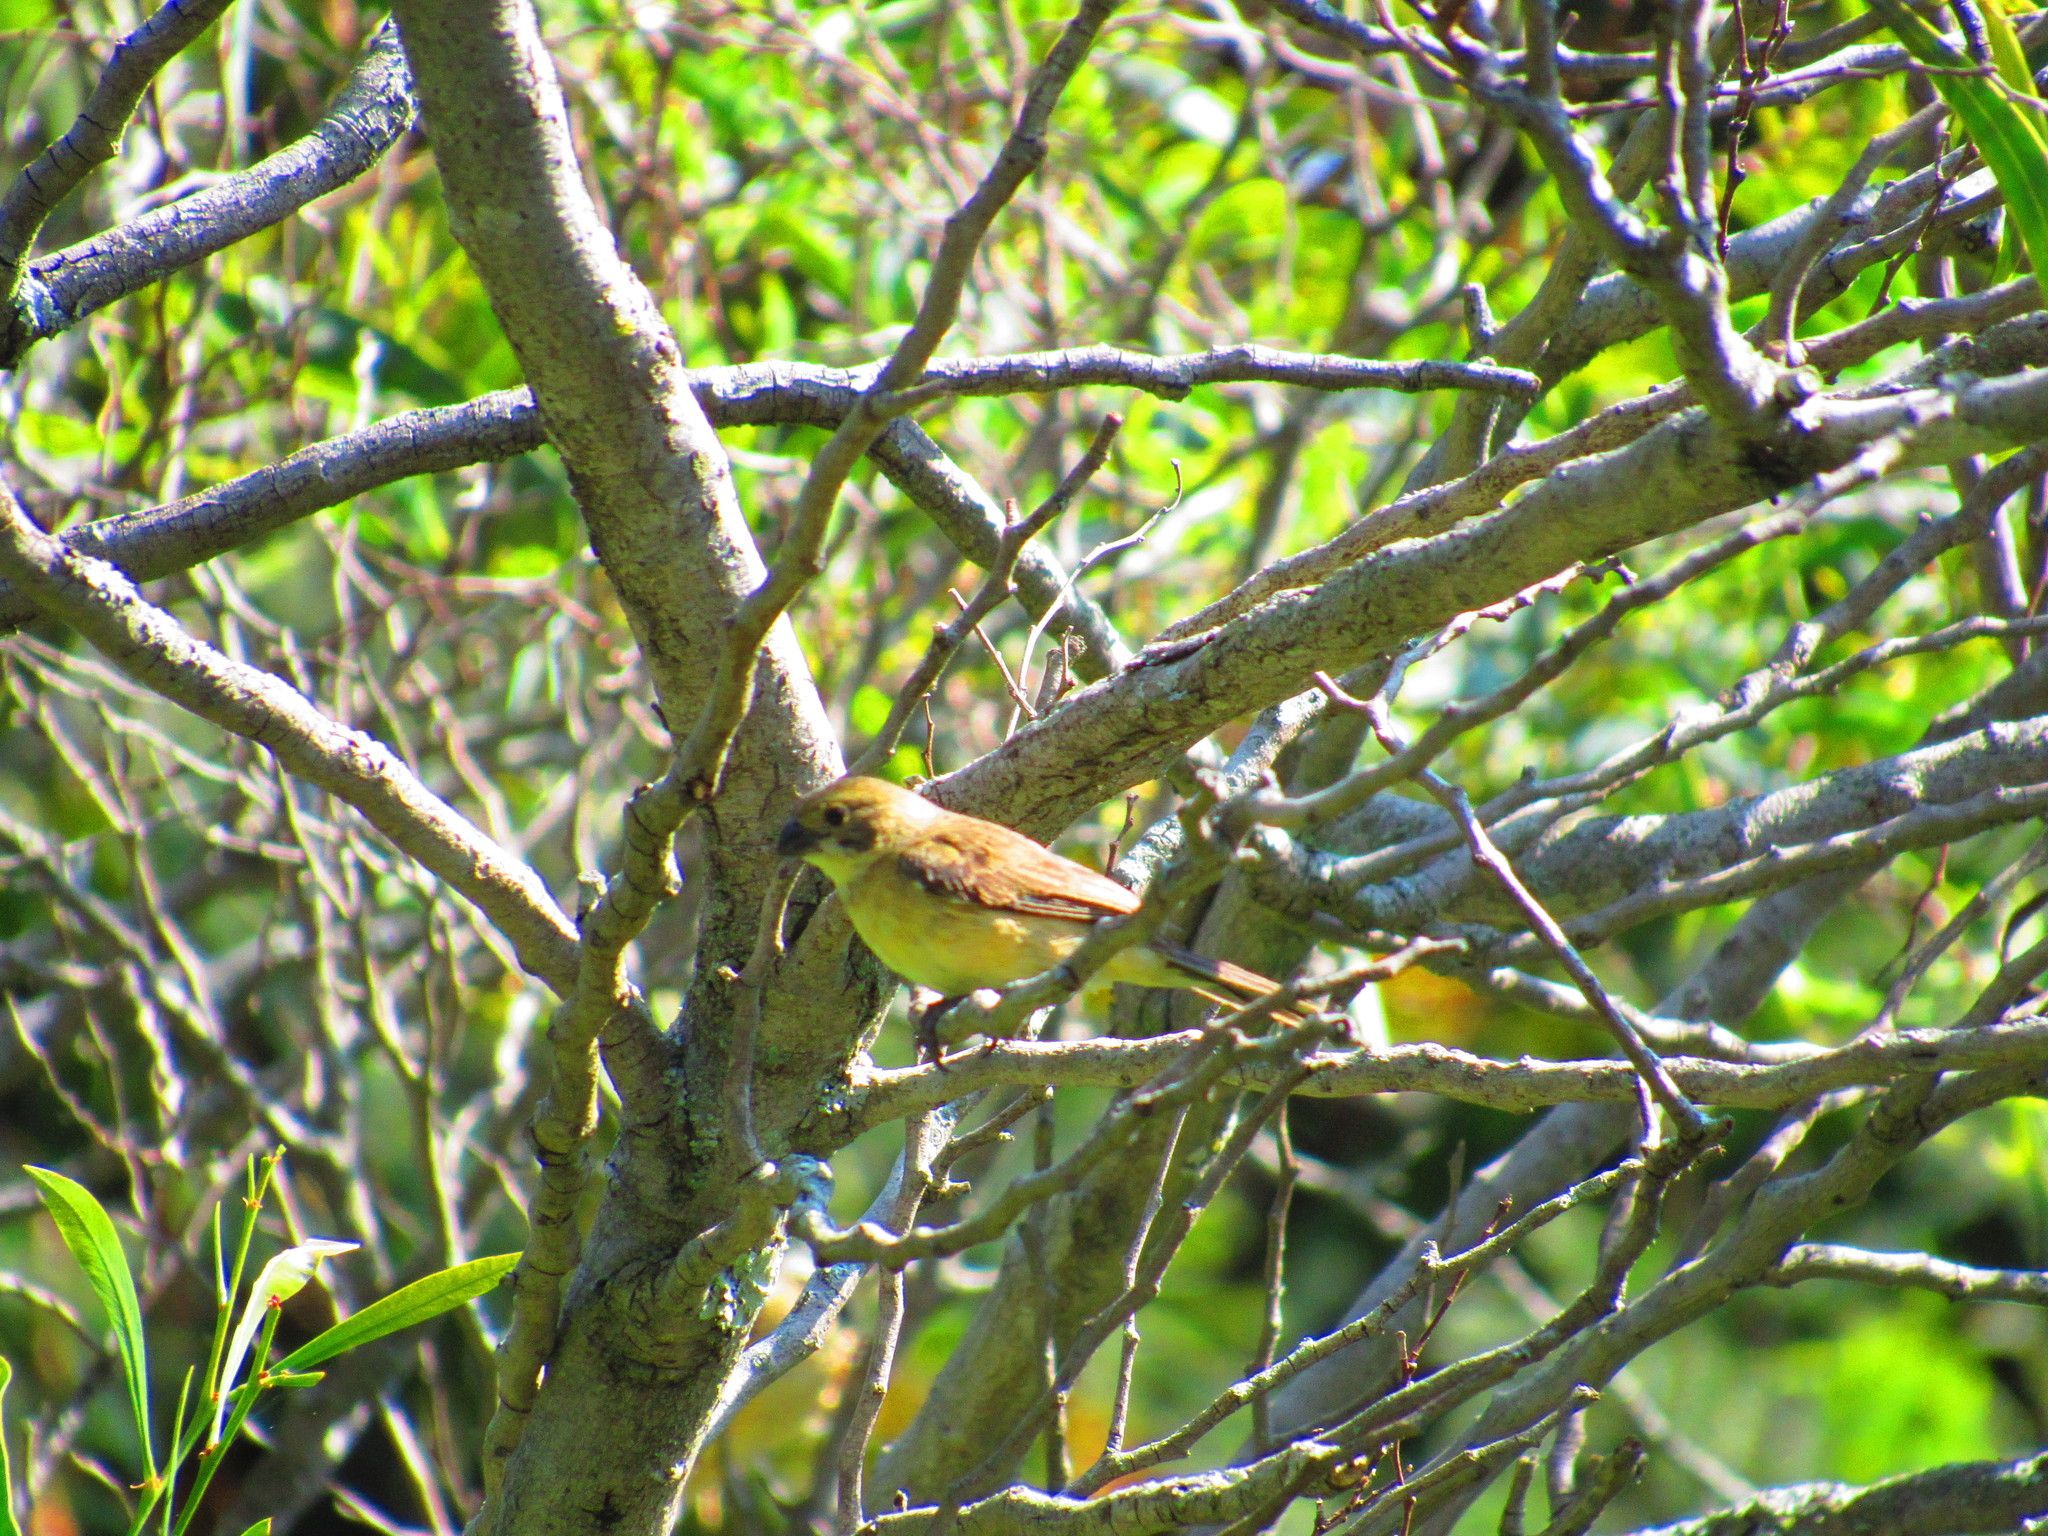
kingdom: Animalia
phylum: Chordata
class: Aves
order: Passeriformes
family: Thraupidae
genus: Sporophila
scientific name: Sporophila torqueola
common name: White-collared seedeater
